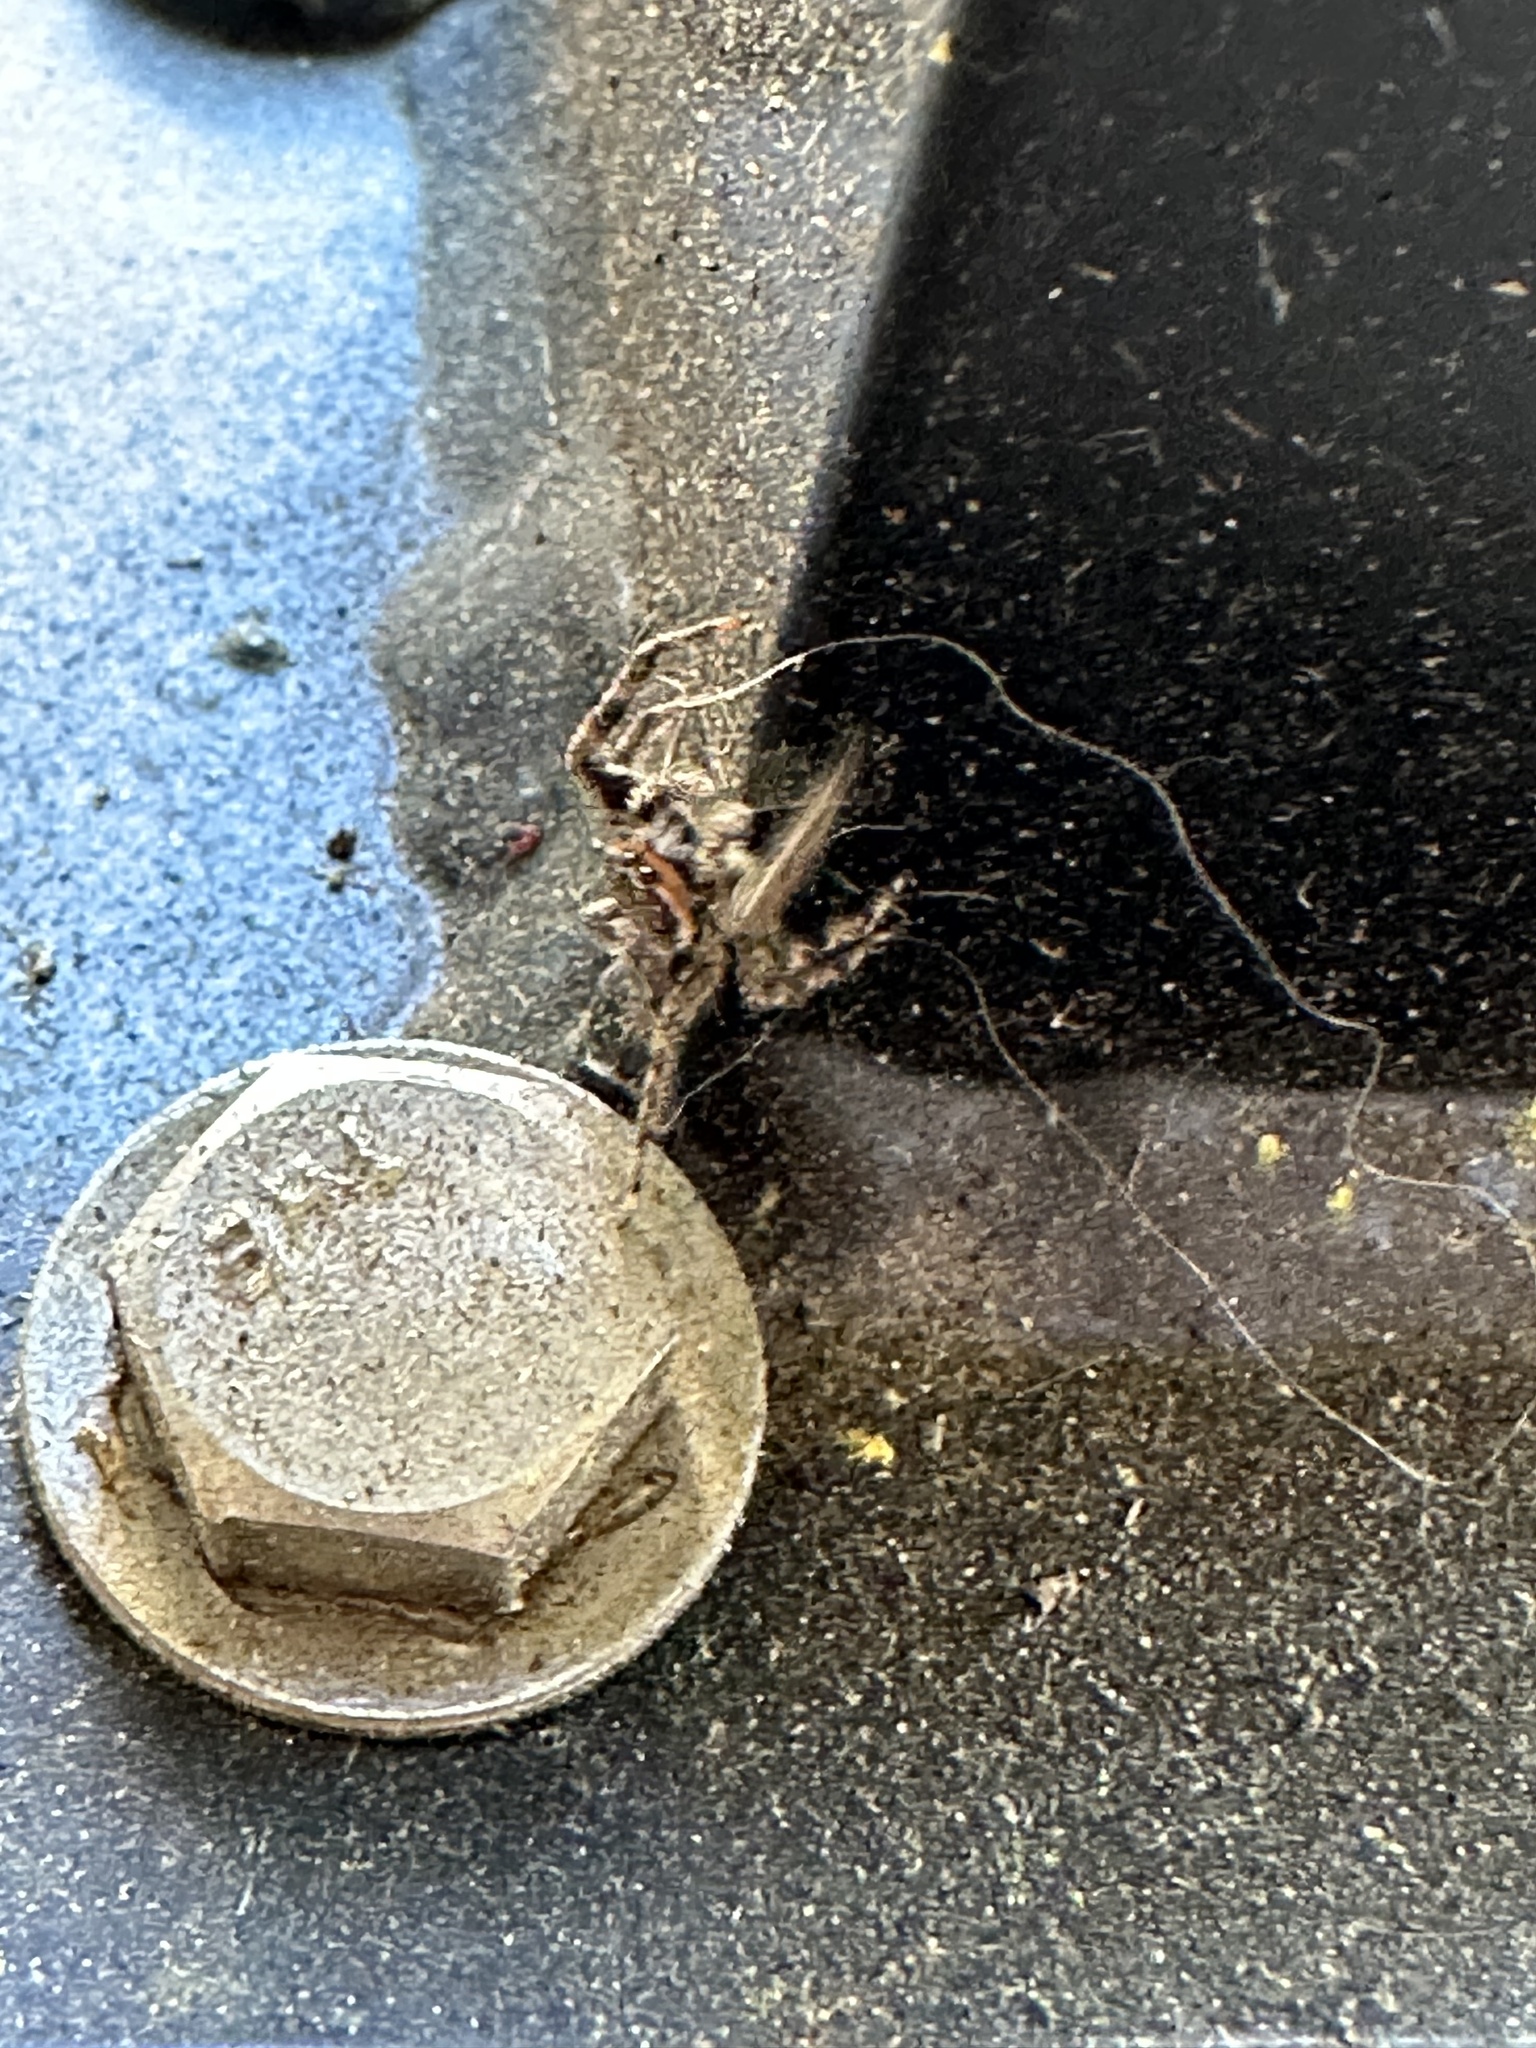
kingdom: Animalia
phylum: Arthropoda
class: Arachnida
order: Araneae
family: Salticidae
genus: Platycryptus
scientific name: Platycryptus undatus
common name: Tan jumping spider
